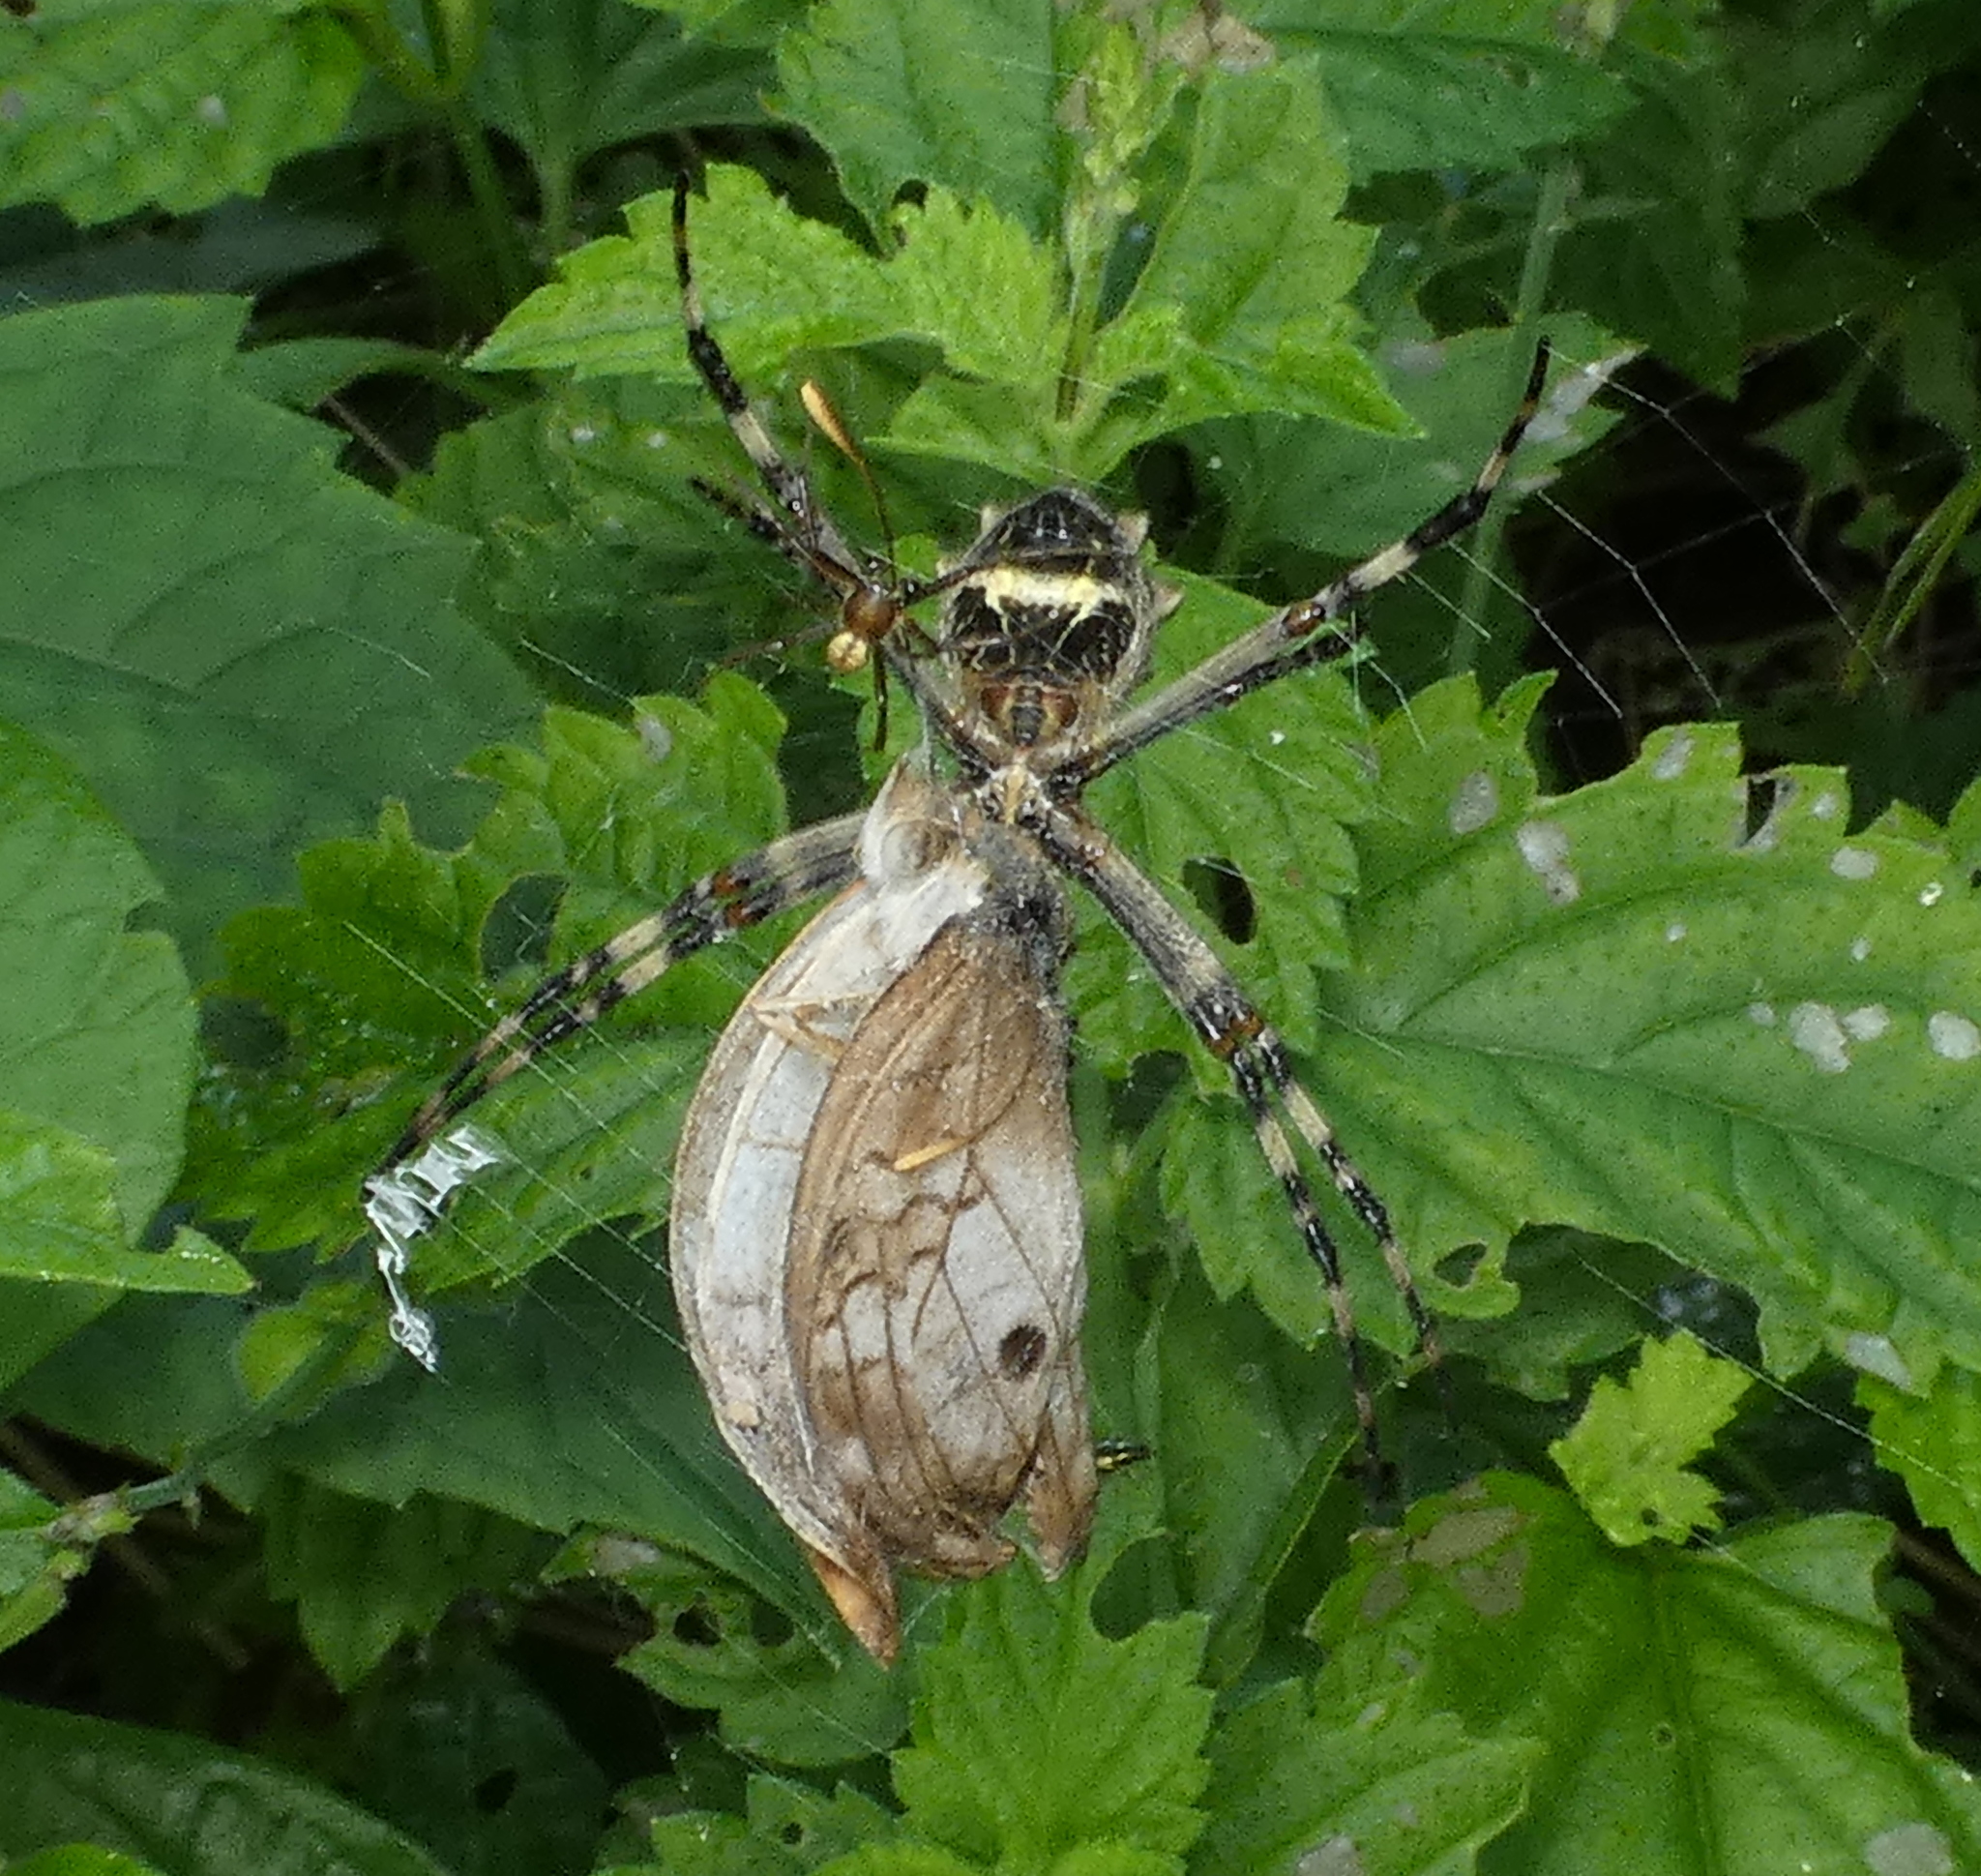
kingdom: Animalia
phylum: Arthropoda
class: Arachnida
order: Araneae
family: Araneidae
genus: Argiope
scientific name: Argiope argentata
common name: Orb weavers
